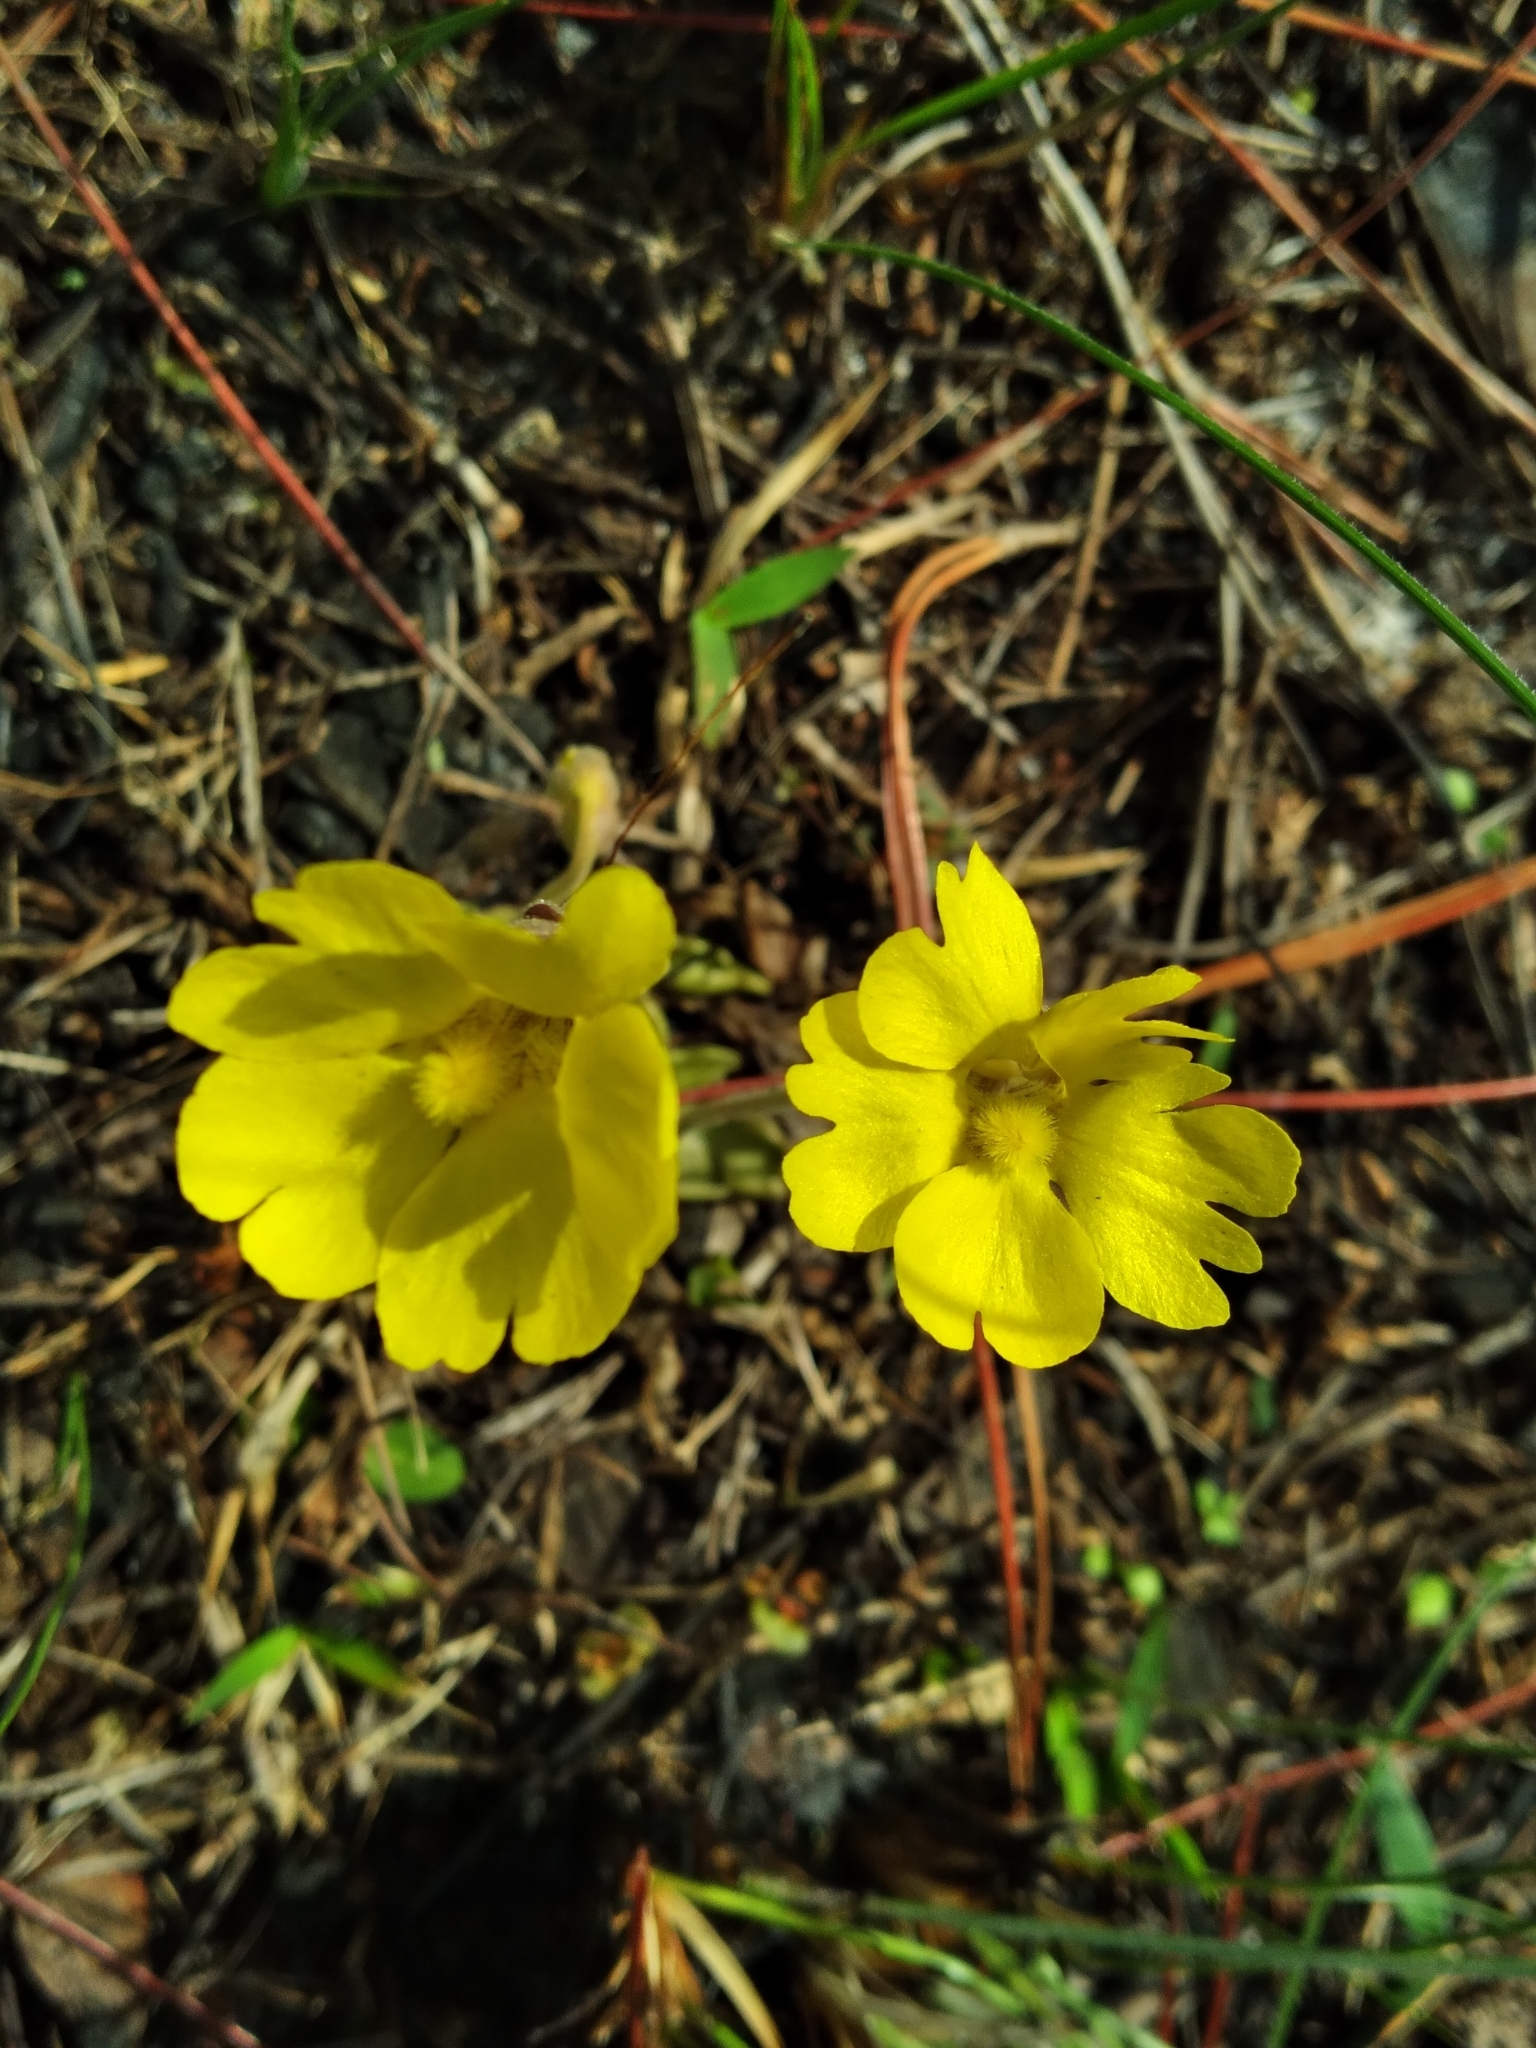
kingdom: Plantae
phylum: Tracheophyta
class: Magnoliopsida
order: Lamiales
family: Lentibulariaceae
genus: Pinguicula
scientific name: Pinguicula lutea
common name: Yellow butterwort
